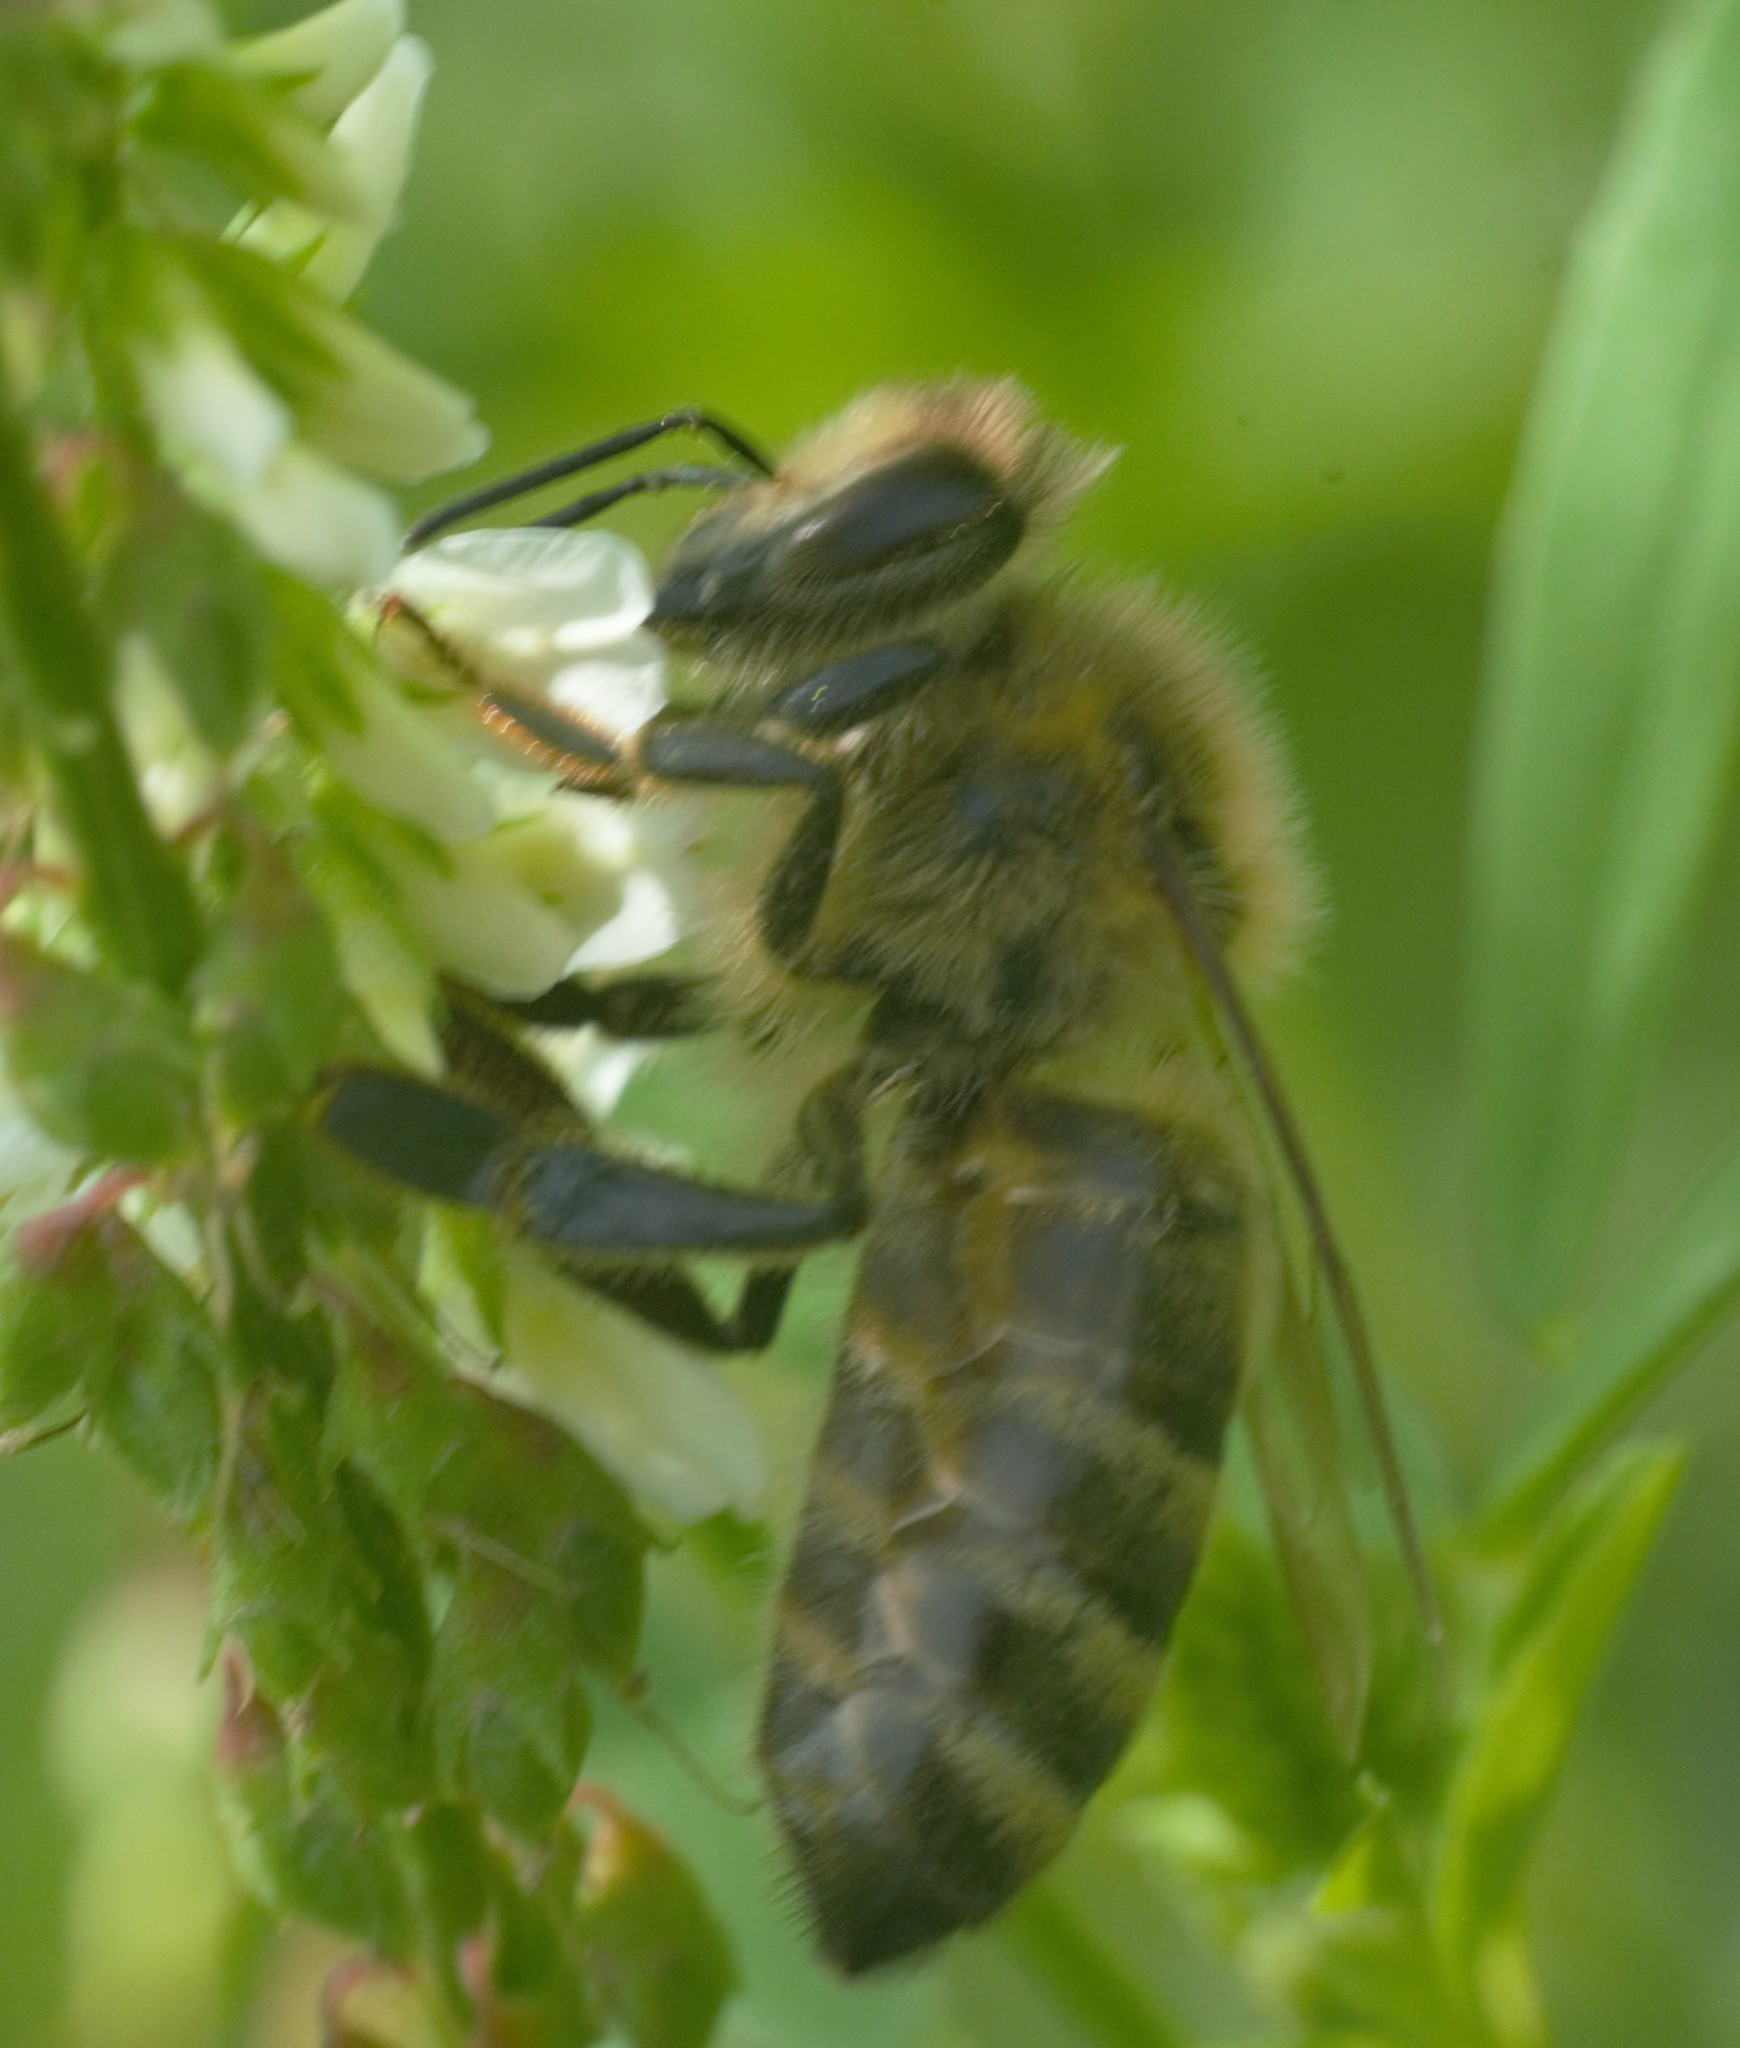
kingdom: Animalia
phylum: Arthropoda
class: Insecta
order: Hymenoptera
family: Apidae
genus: Apis
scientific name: Apis mellifera
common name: Honey bee
